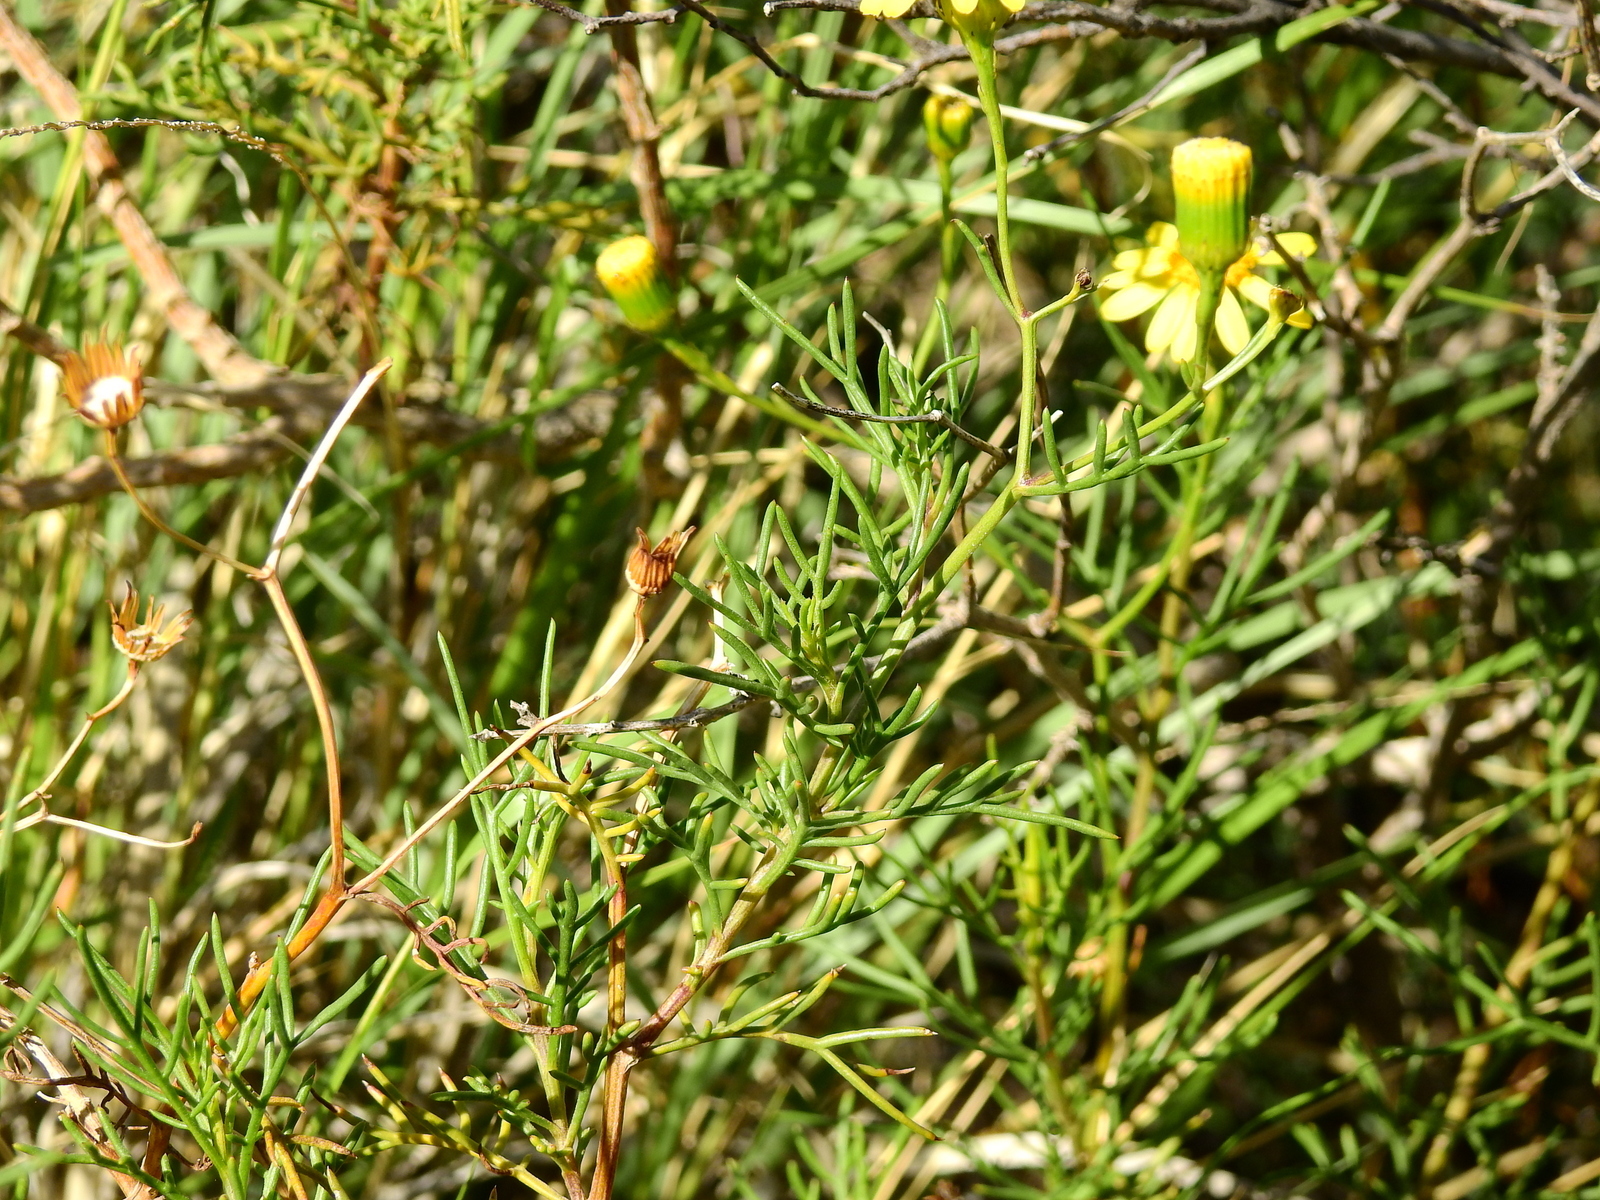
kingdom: Plantae
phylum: Tracheophyta
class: Magnoliopsida
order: Asterales
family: Asteraceae
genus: Senecio
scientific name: Senecio subulatus
